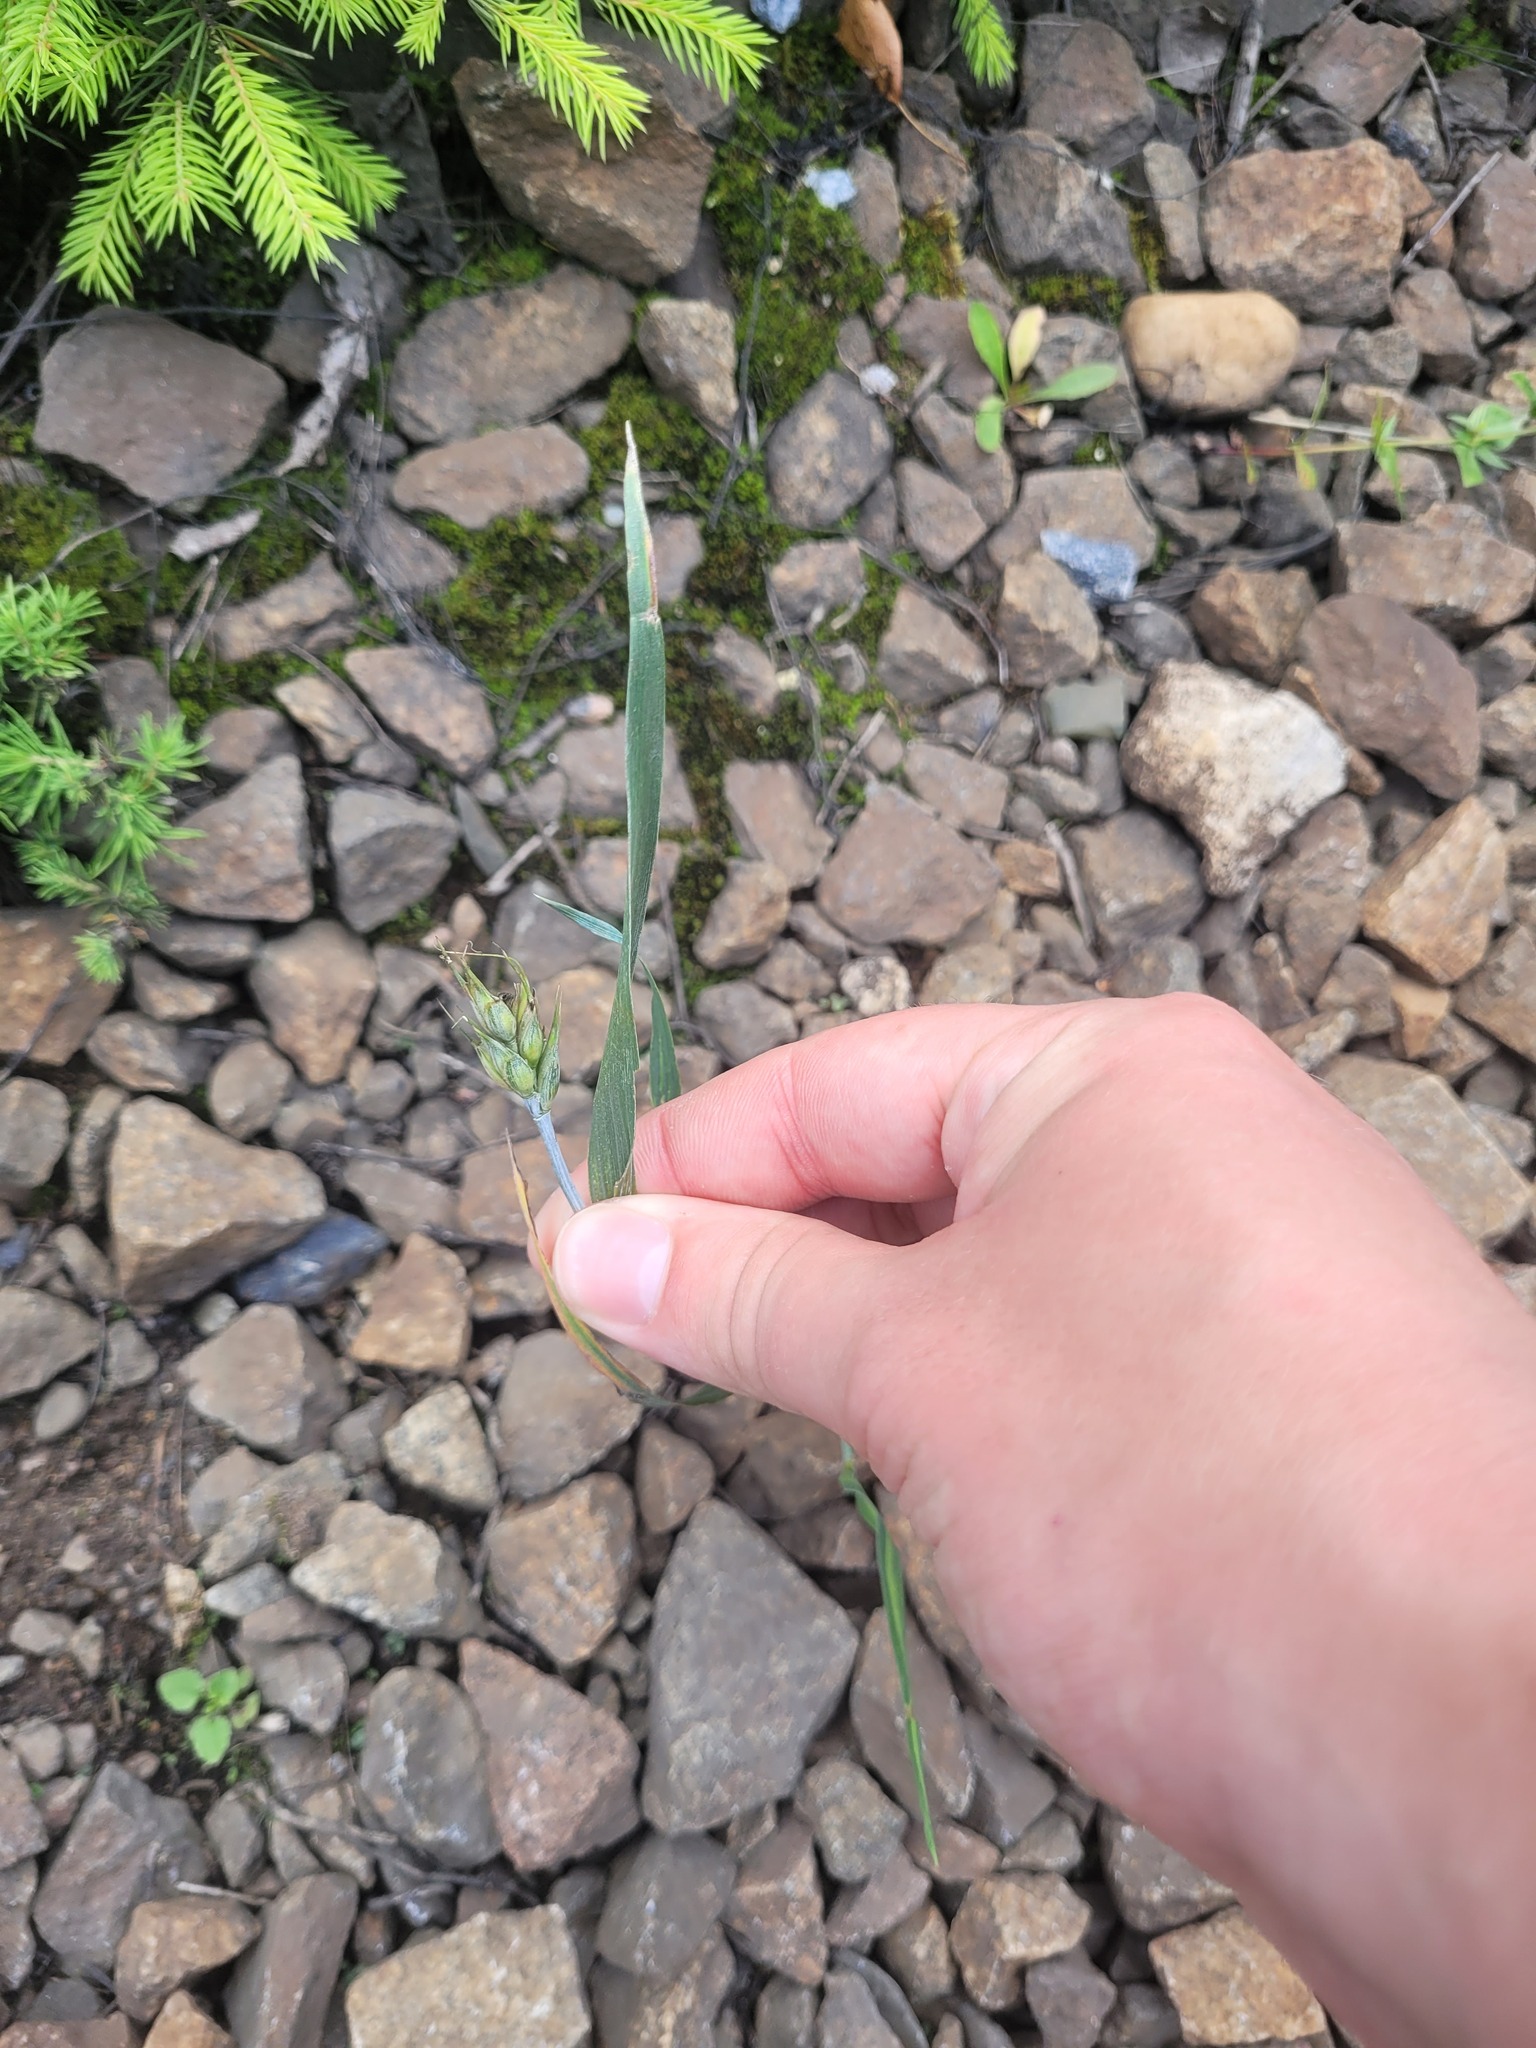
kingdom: Plantae
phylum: Tracheophyta
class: Liliopsida
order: Poales
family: Poaceae
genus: Triticum
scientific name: Triticum aestivum
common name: Common wheat
